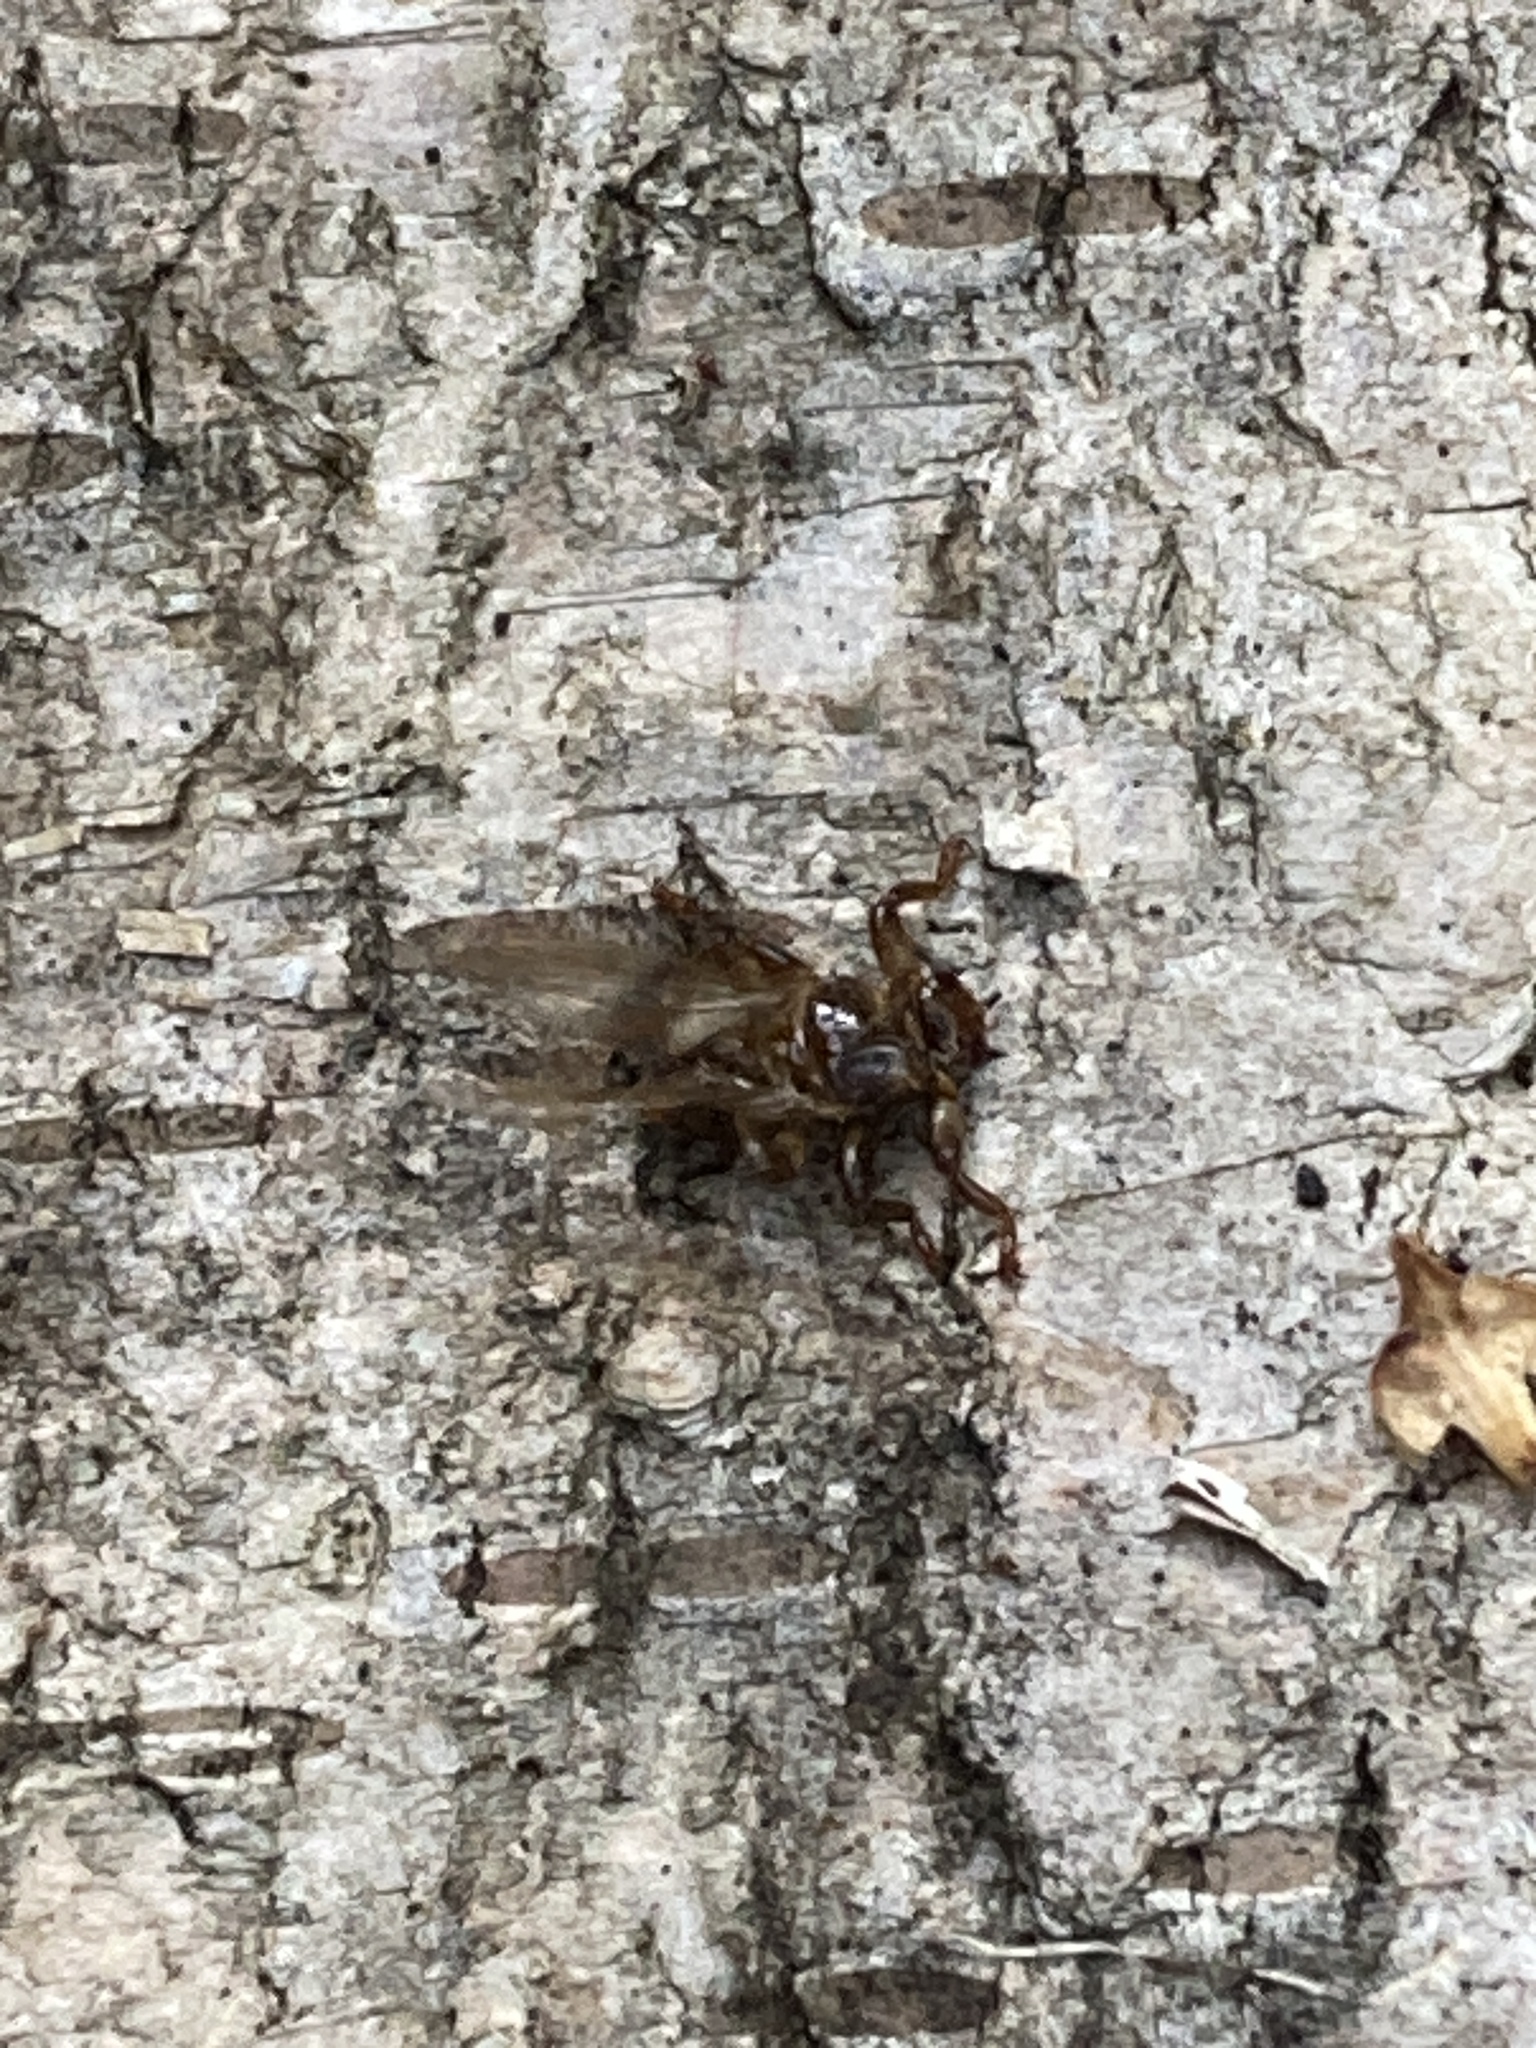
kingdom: Animalia
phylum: Arthropoda
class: Insecta
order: Diptera
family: Hippoboscidae
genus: Lipoptena
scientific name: Lipoptena cervi
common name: Deer ked
